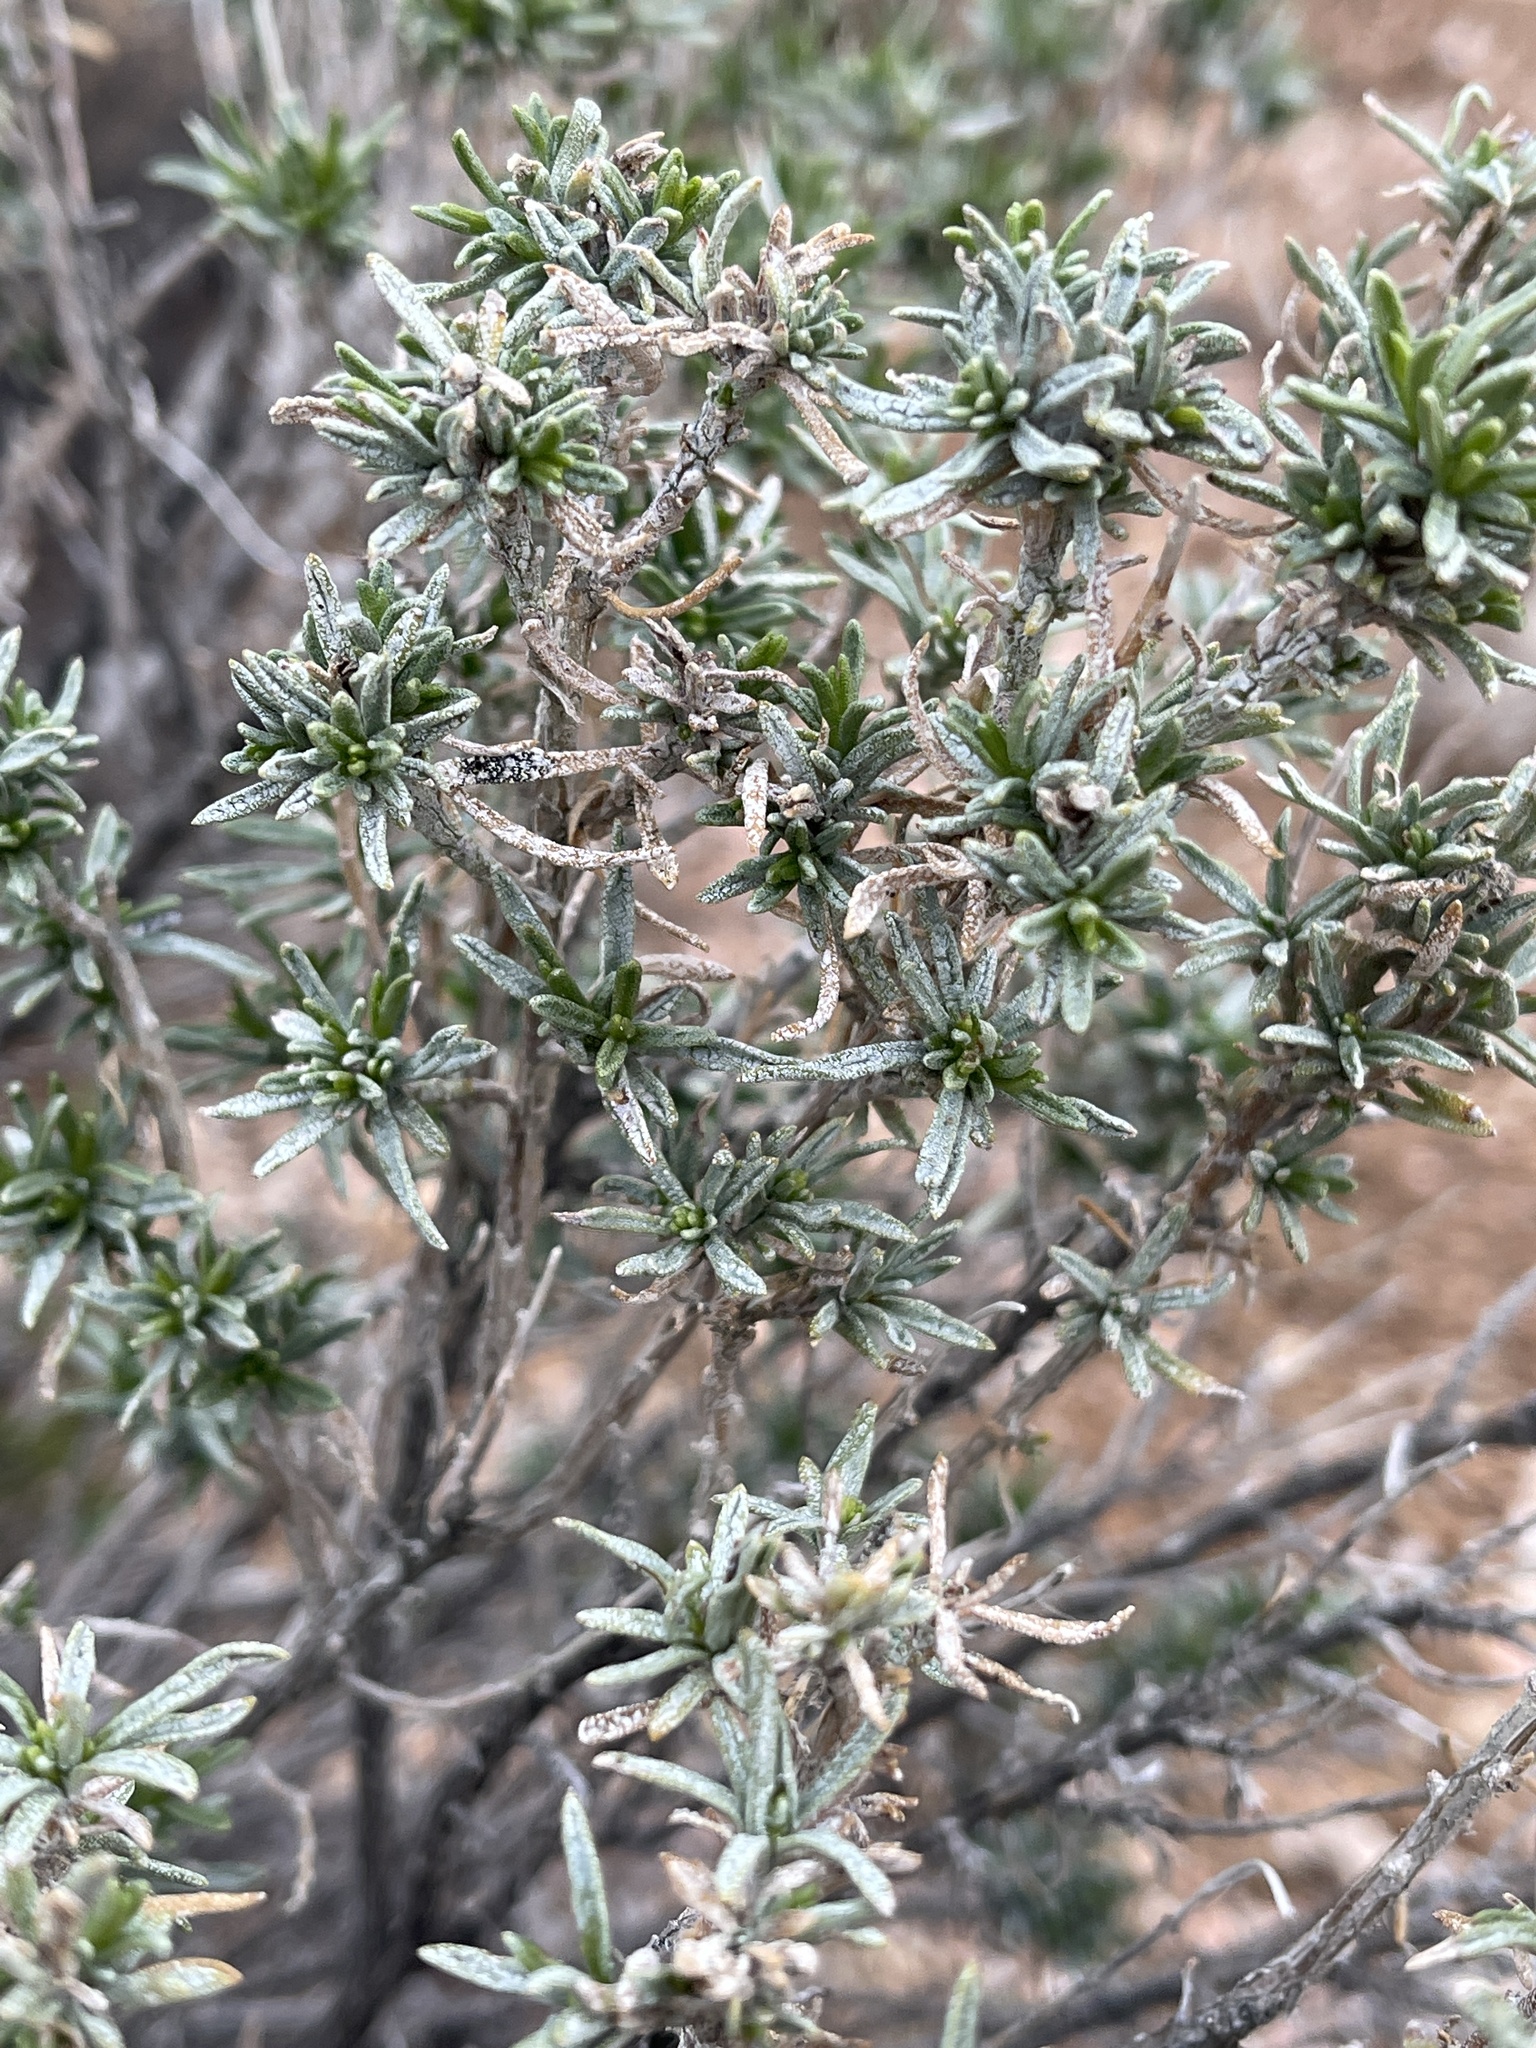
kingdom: Plantae
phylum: Tracheophyta
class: Magnoliopsida
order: Asterales
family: Asteraceae
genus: Ericameria
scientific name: Ericameria laricifolia
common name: Turpentine-bush
